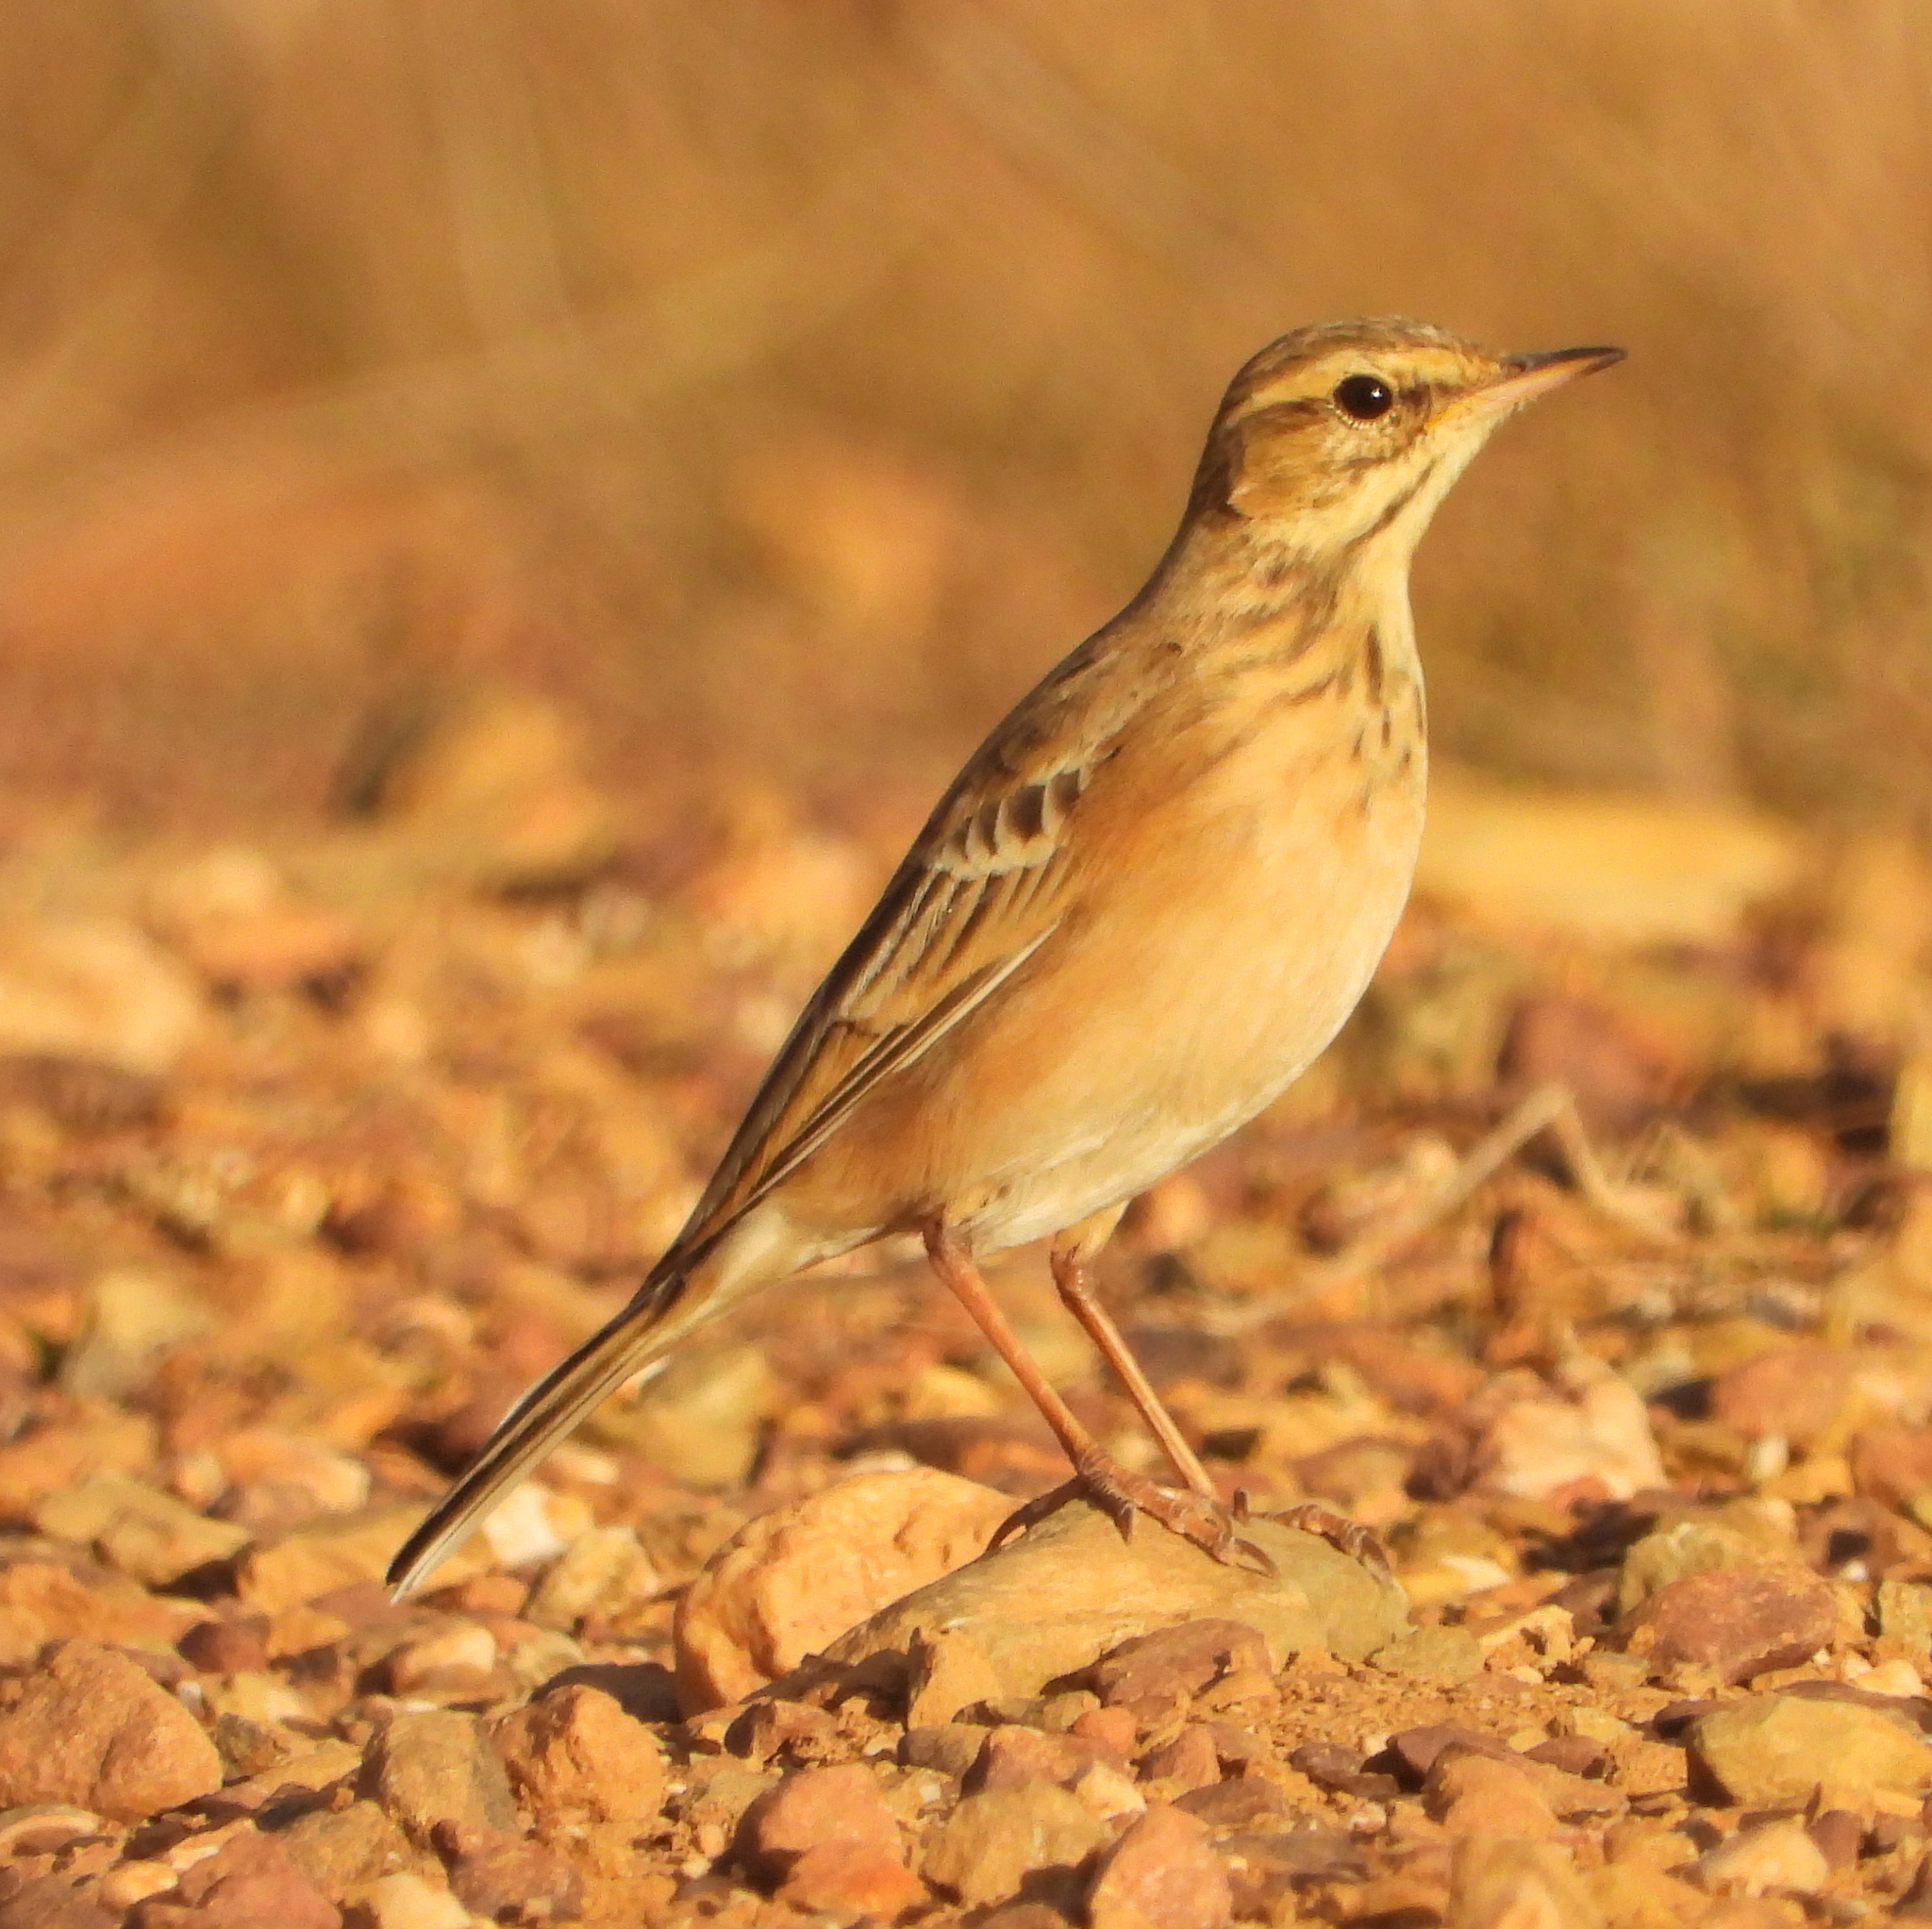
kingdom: Animalia
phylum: Chordata
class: Aves
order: Passeriformes
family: Motacillidae
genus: Anthus
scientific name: Anthus cinnamomeus
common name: African pipit
